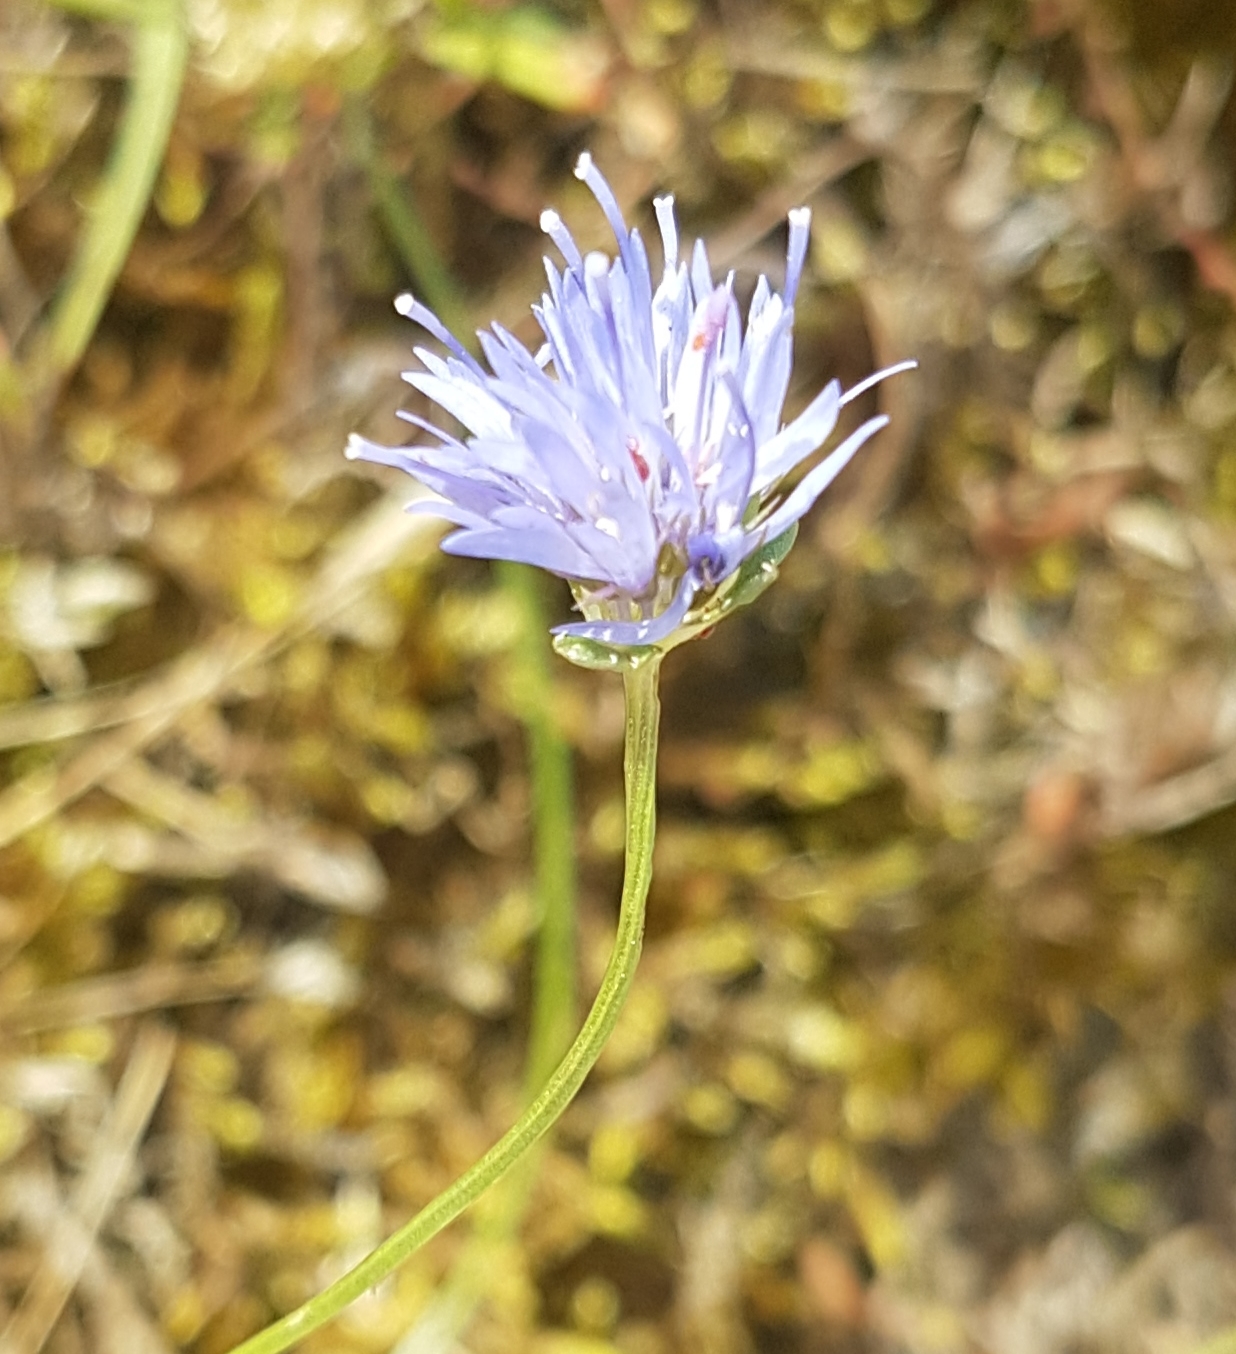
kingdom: Plantae
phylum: Tracheophyta
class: Magnoliopsida
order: Asterales
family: Campanulaceae
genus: Jasione
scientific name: Jasione montana
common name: Sheep's-bit
